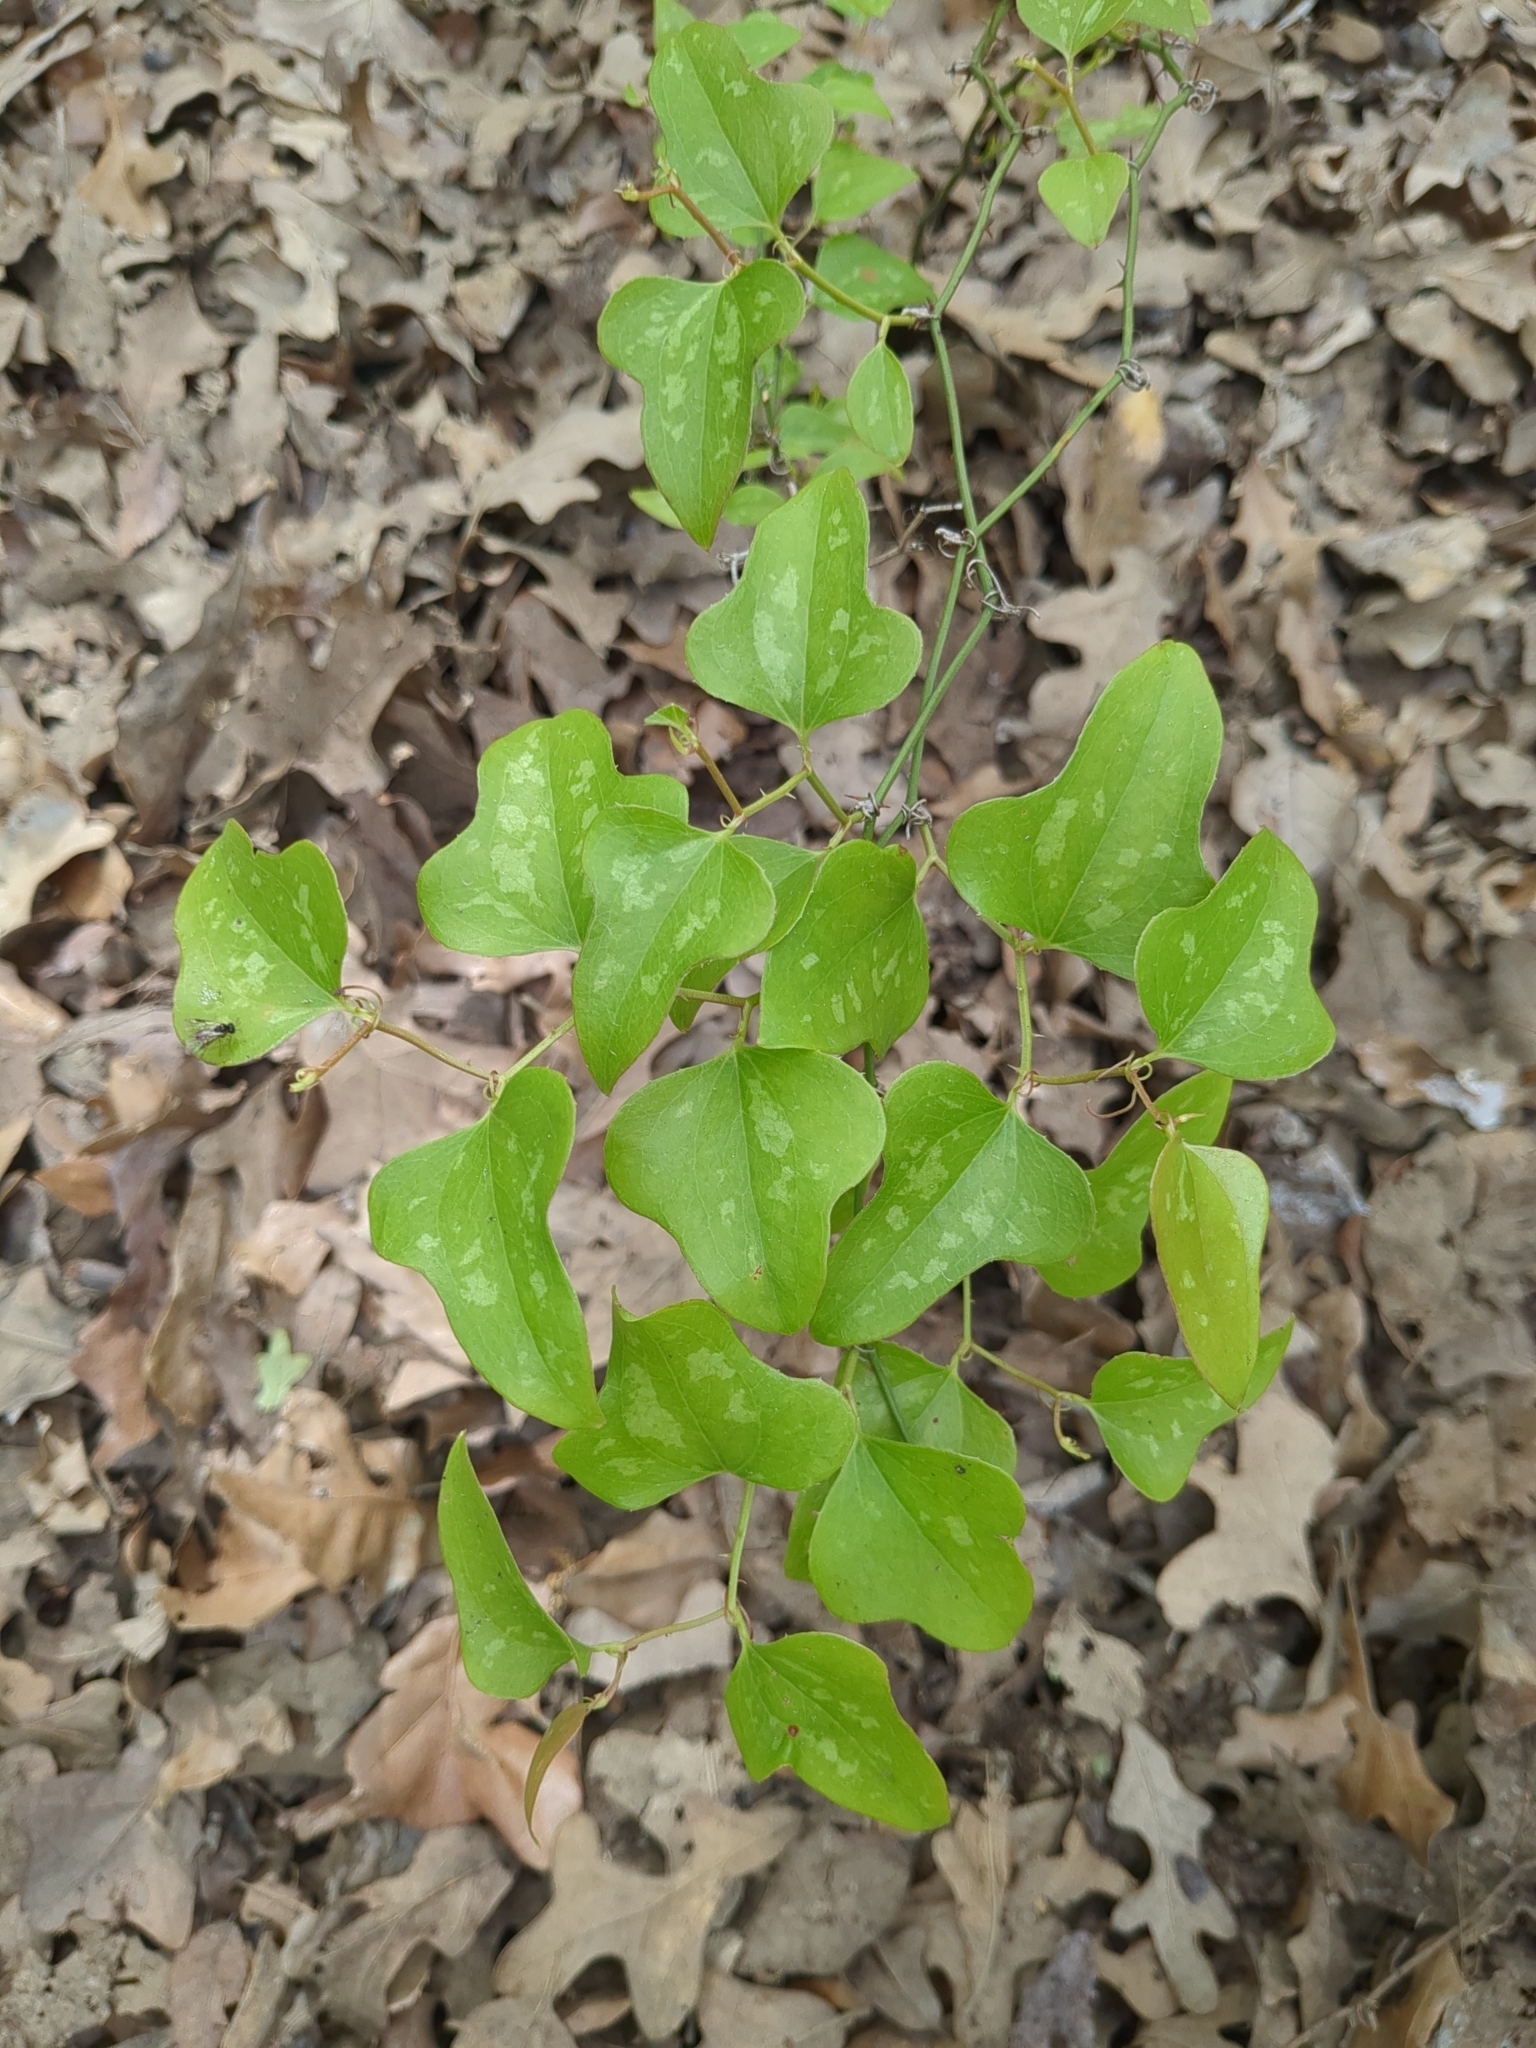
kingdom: Plantae
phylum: Tracheophyta
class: Liliopsida
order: Liliales
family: Smilacaceae
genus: Smilax
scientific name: Smilax bona-nox
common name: Catbrier
